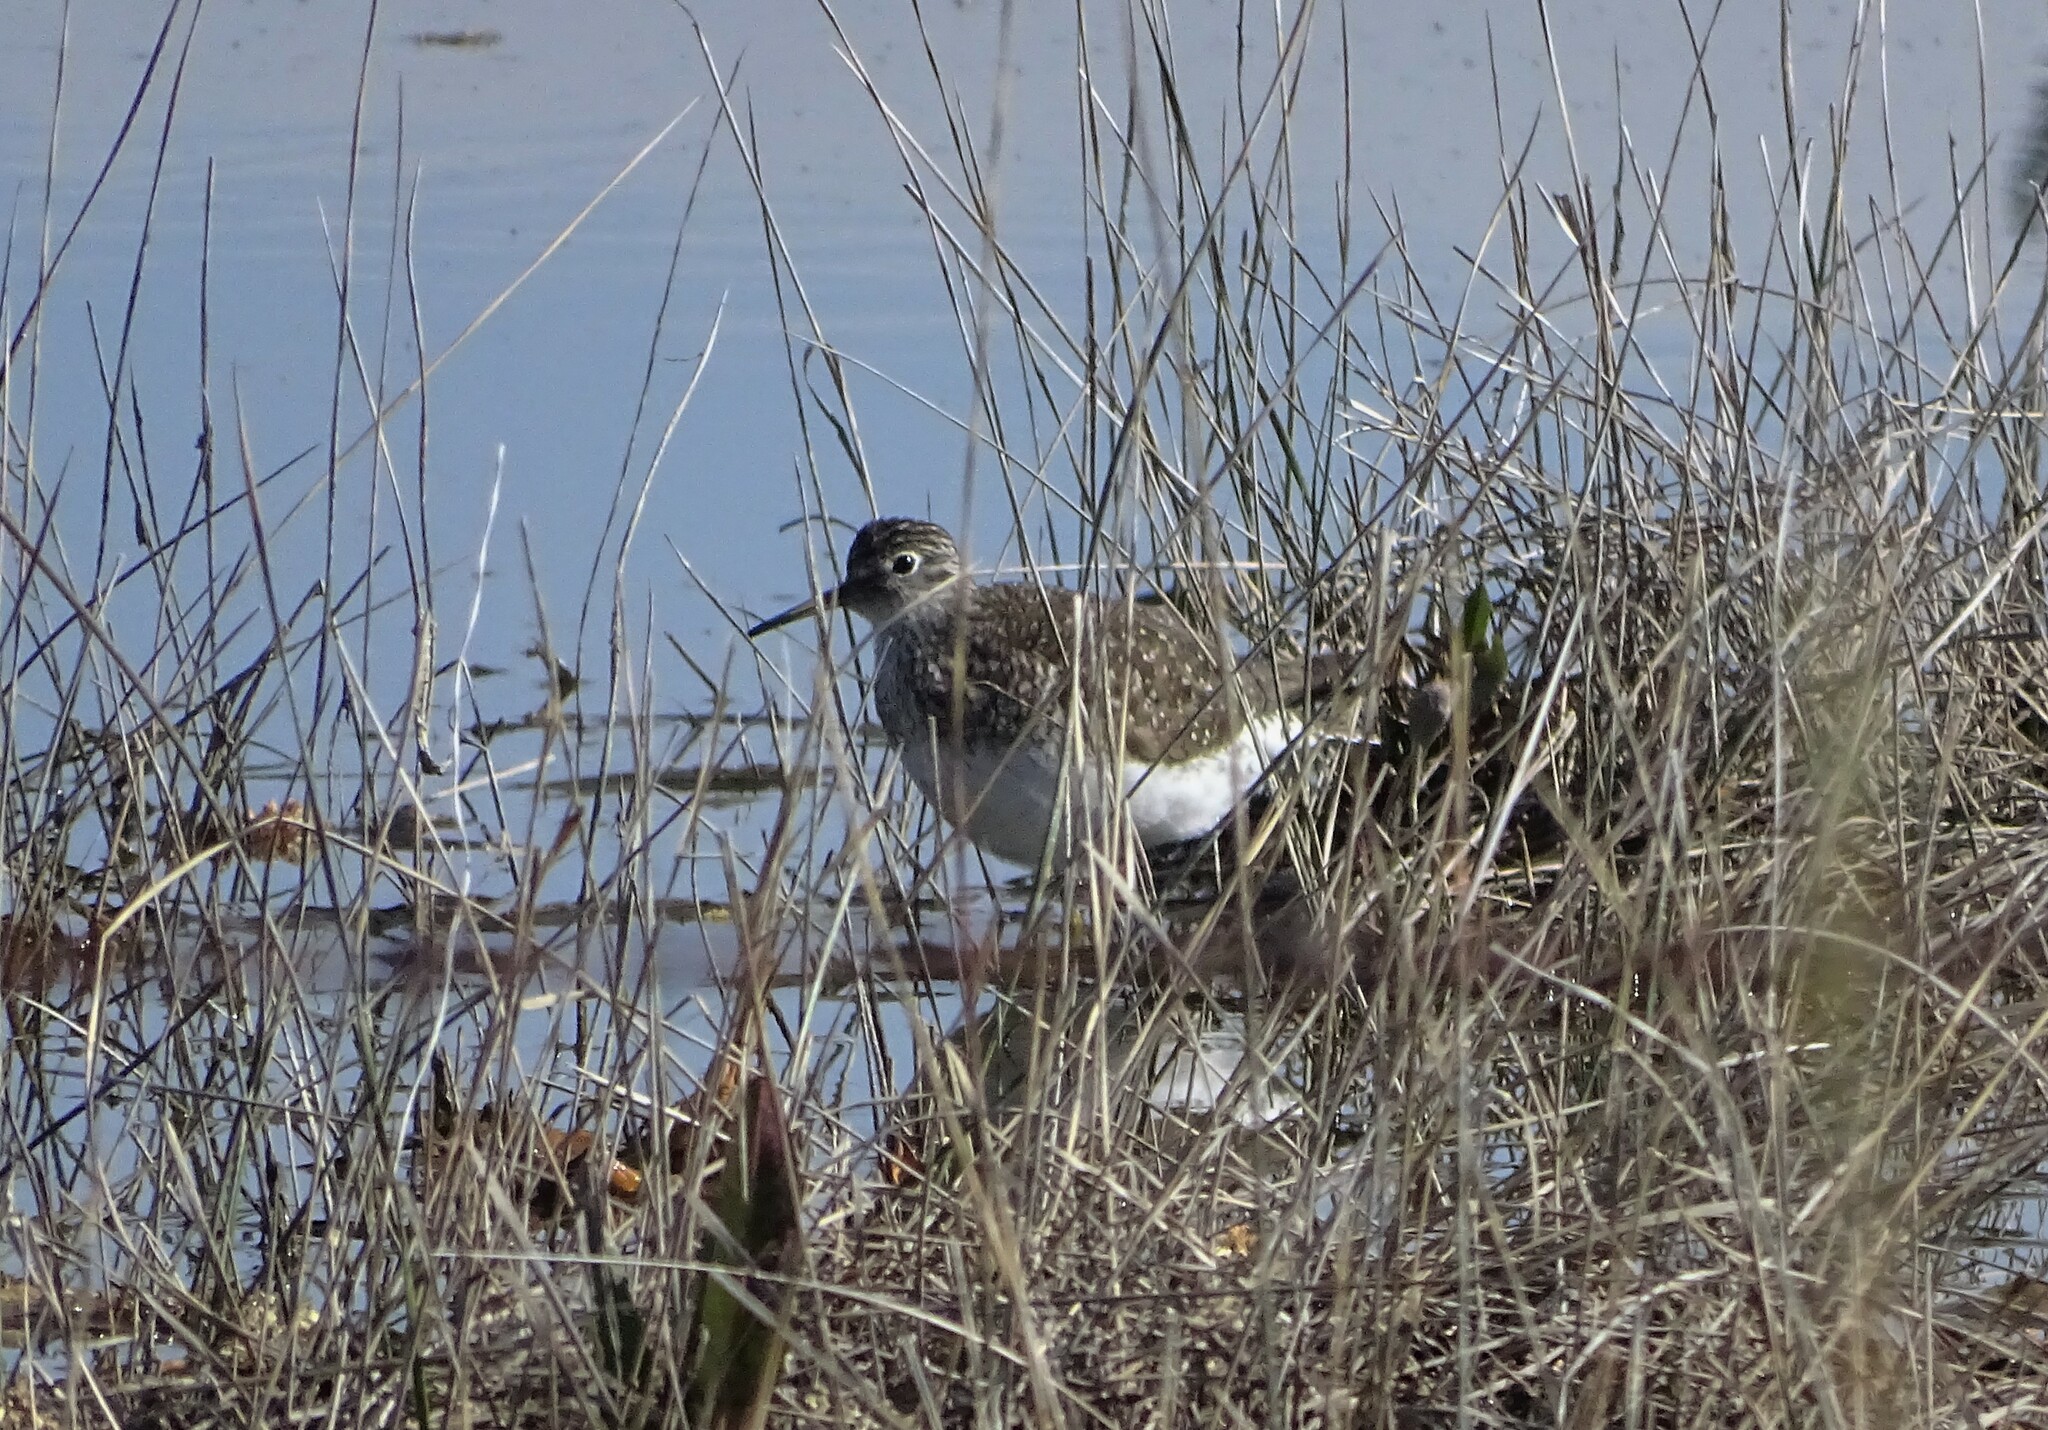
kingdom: Animalia
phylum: Chordata
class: Aves
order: Charadriiformes
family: Scolopacidae
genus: Tringa
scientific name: Tringa solitaria
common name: Solitary sandpiper
